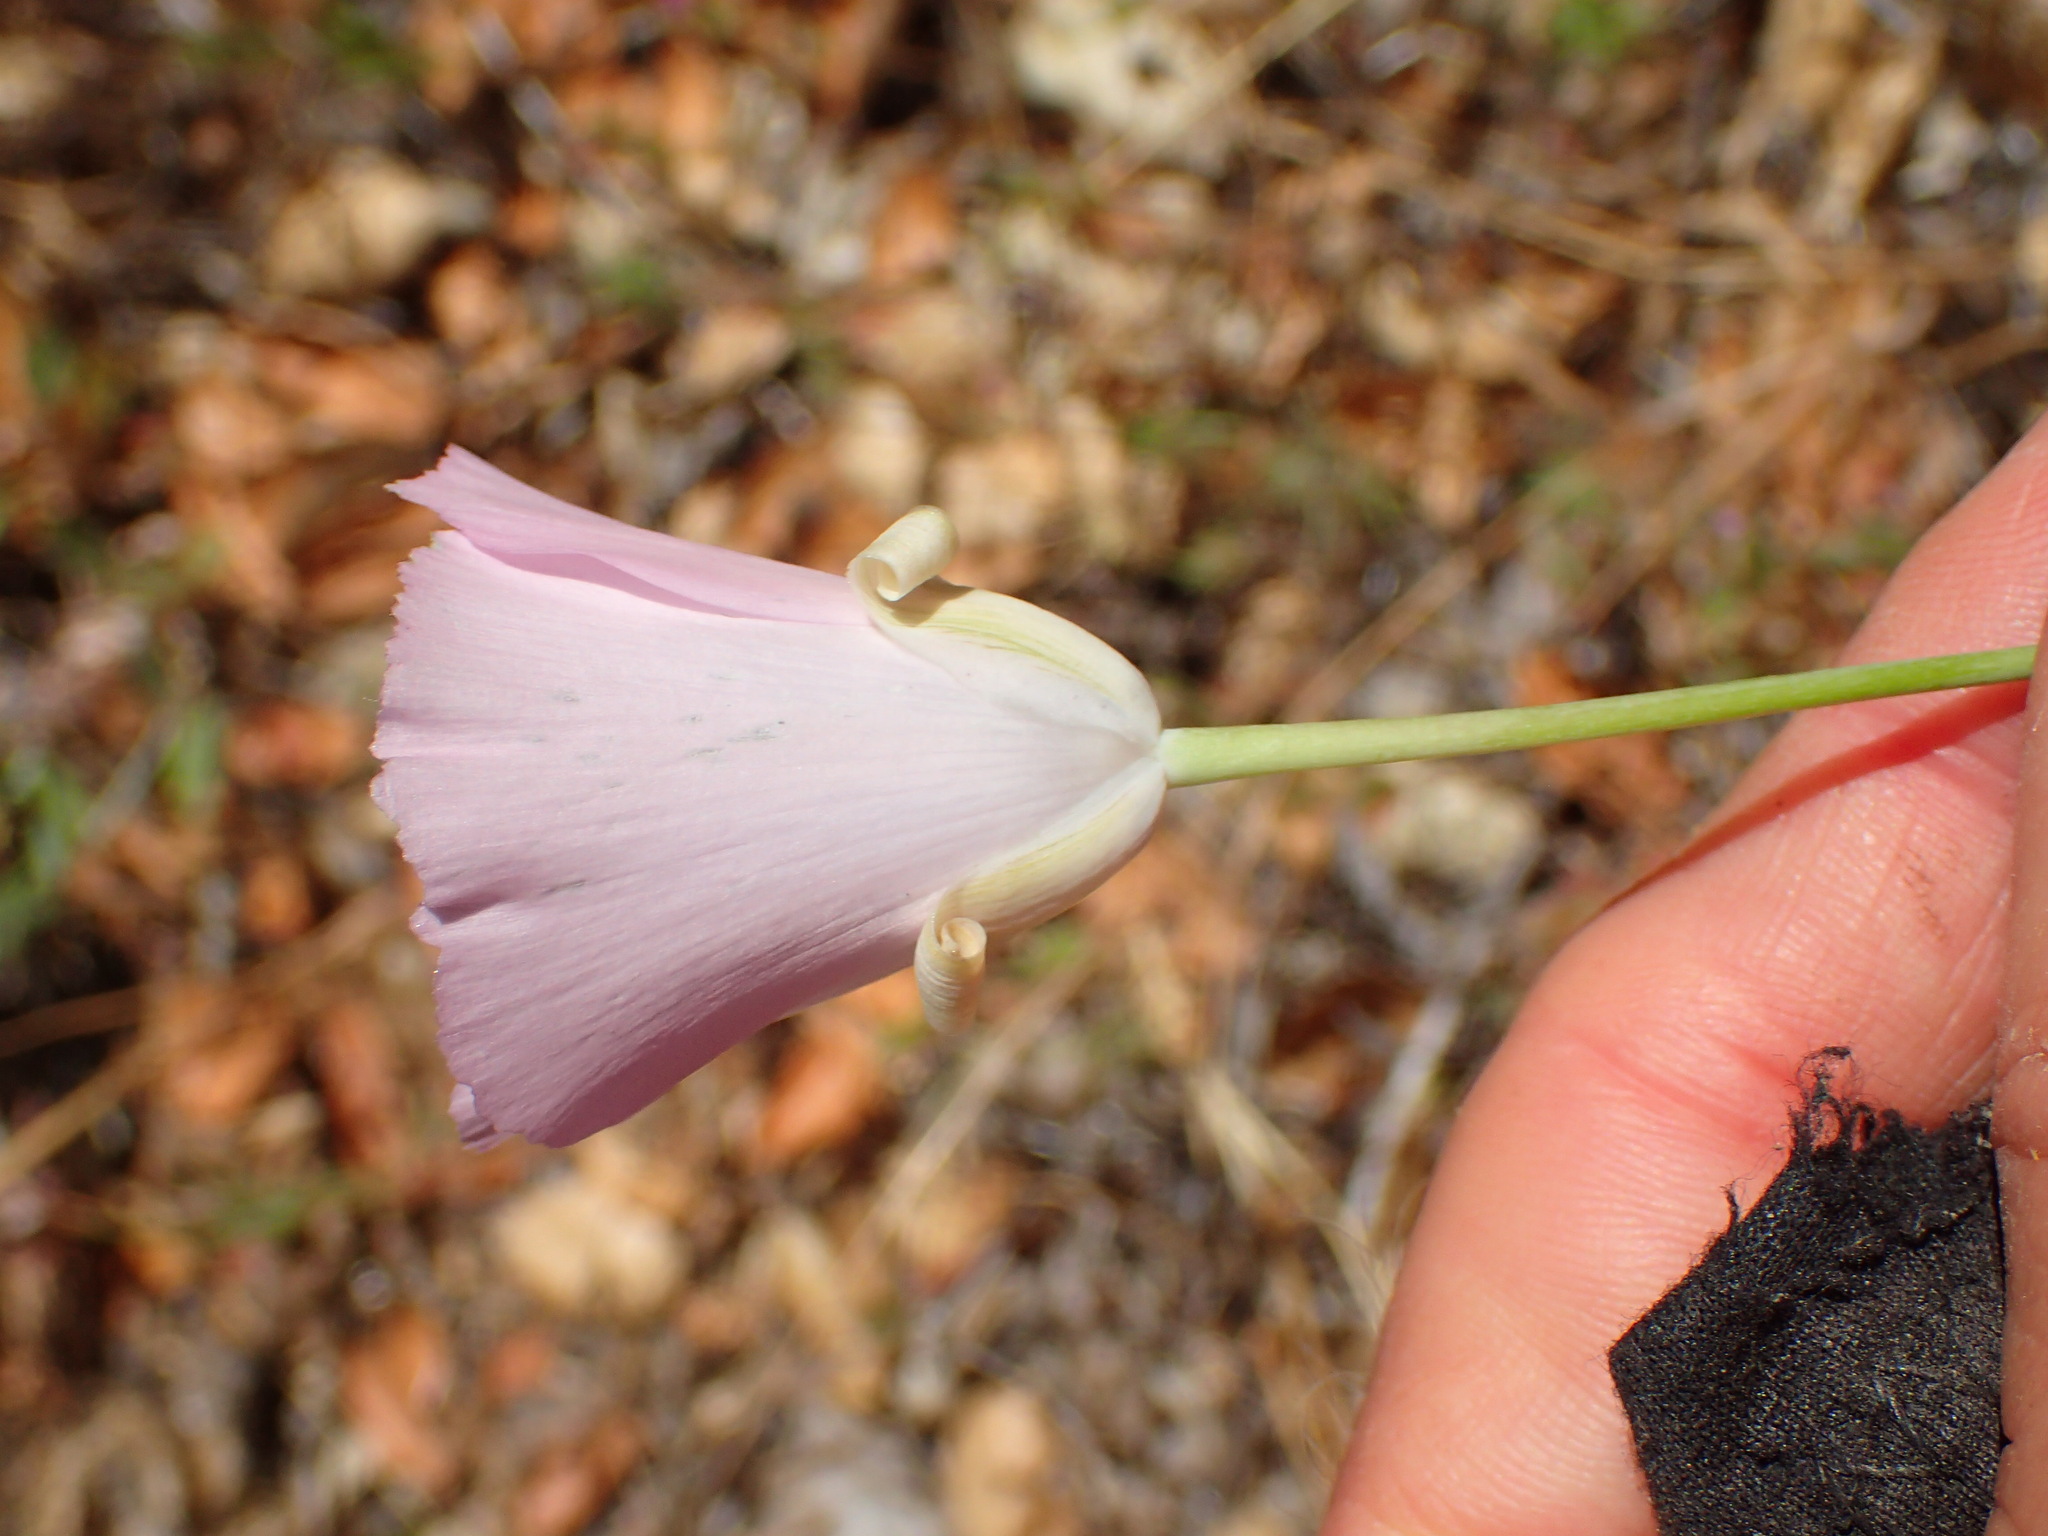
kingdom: Plantae
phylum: Tracheophyta
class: Liliopsida
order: Liliales
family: Liliaceae
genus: Calochortus
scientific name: Calochortus splendens
